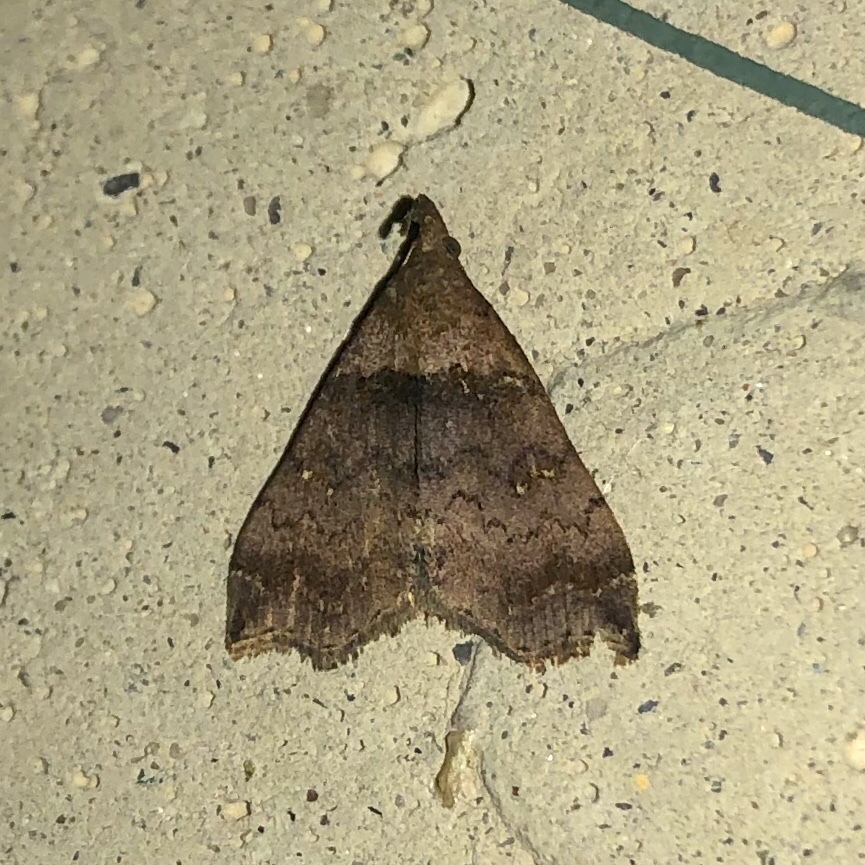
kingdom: Animalia
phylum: Arthropoda
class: Insecta
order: Lepidoptera
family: Erebidae
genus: Lascoria
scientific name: Lascoria ambigualis
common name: Ambiguous moth
